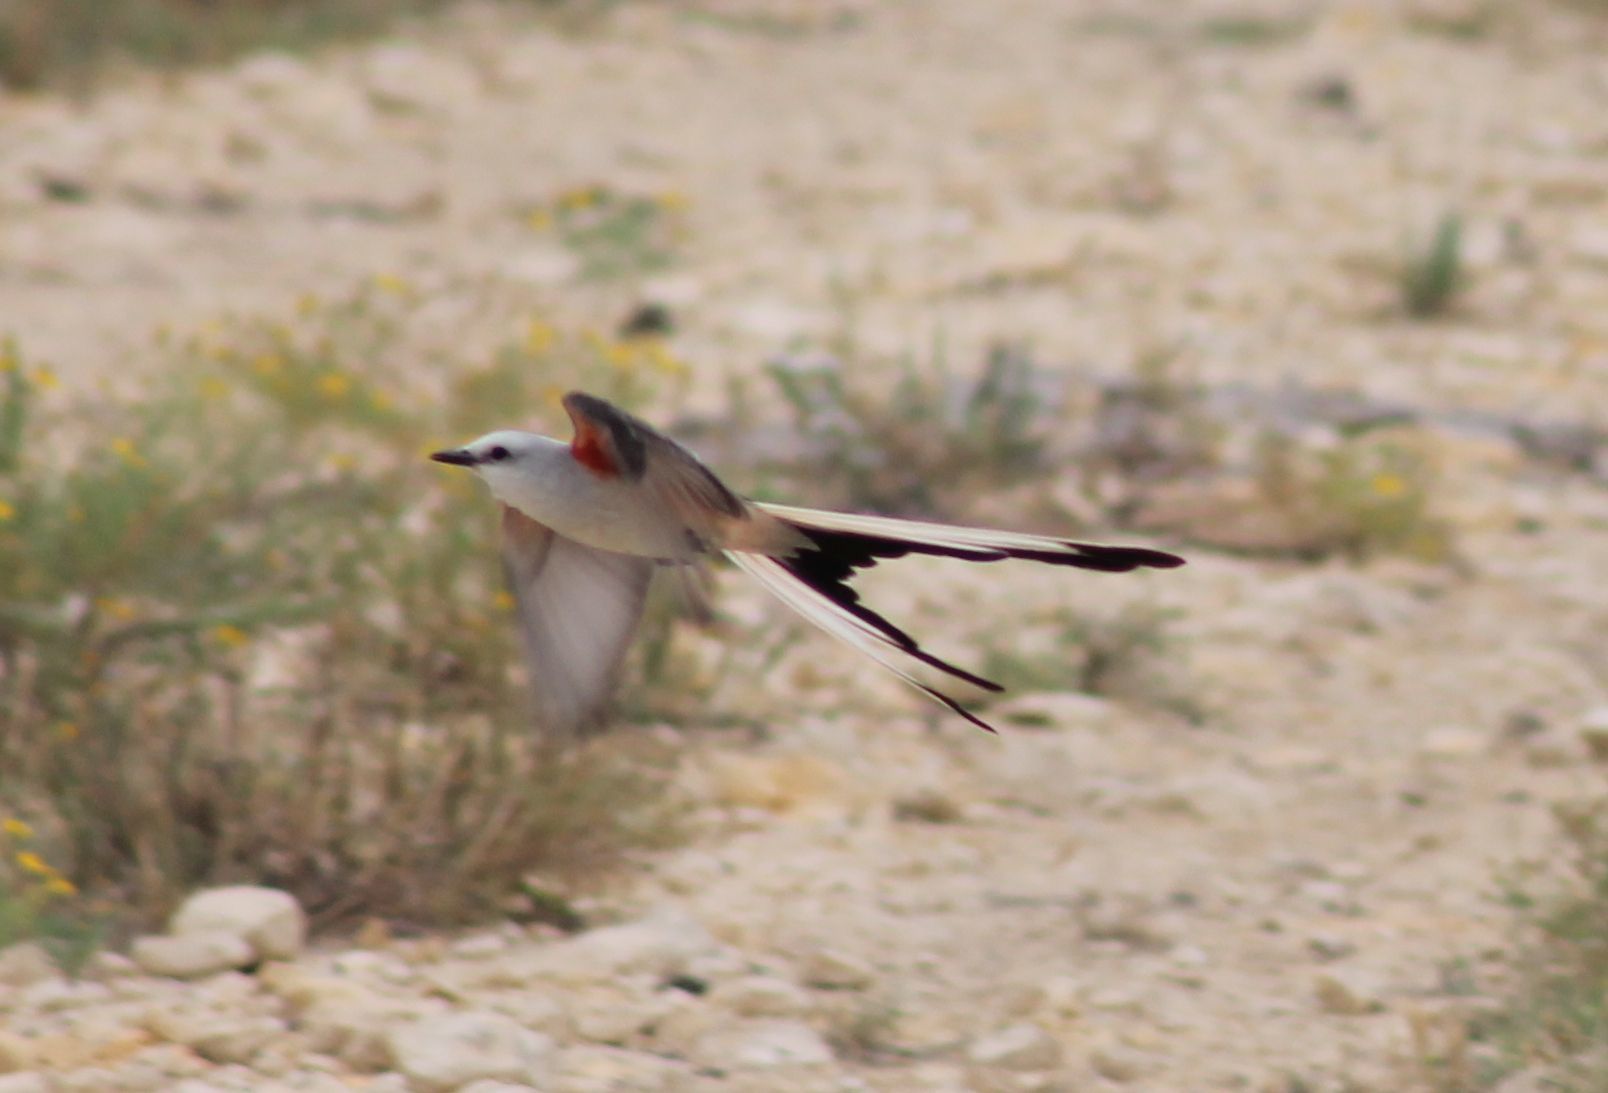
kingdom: Animalia
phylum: Chordata
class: Aves
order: Passeriformes
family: Tyrannidae
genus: Tyrannus
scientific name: Tyrannus forficatus
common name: Scissor-tailed flycatcher
